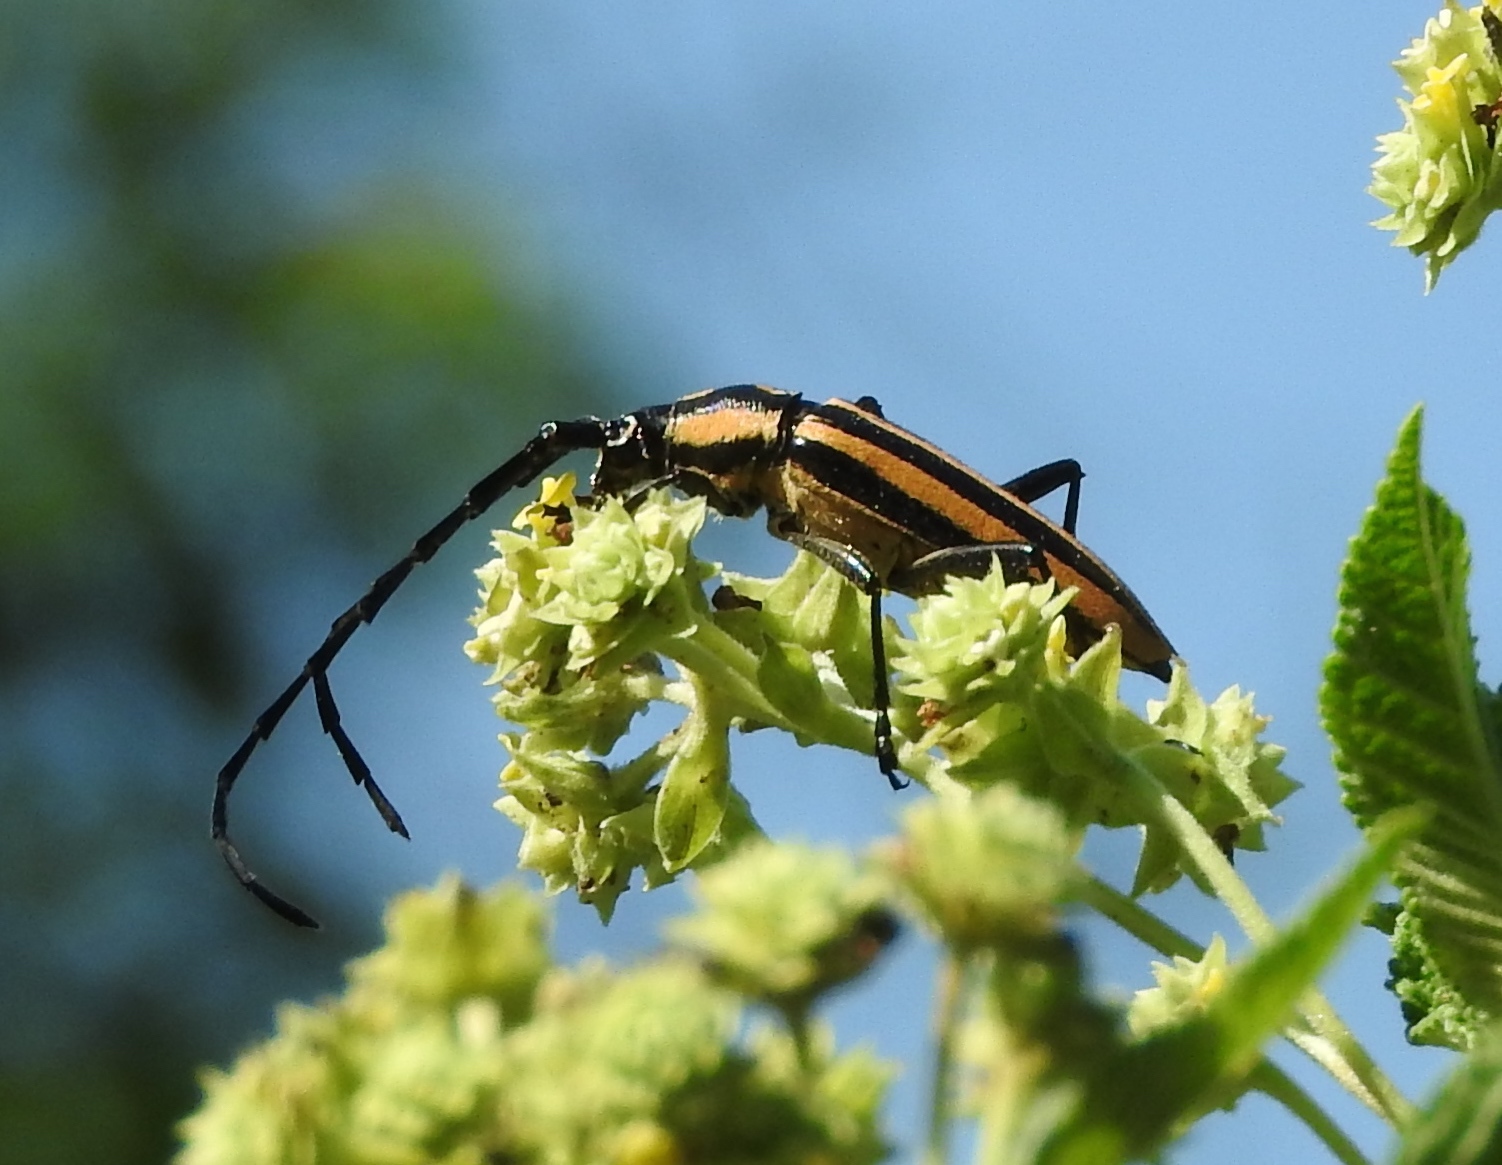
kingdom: Animalia
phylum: Arthropoda
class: Insecta
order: Coleoptera
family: Cerambycidae
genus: Sphaenothecus
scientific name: Sphaenothecus trilineatus
